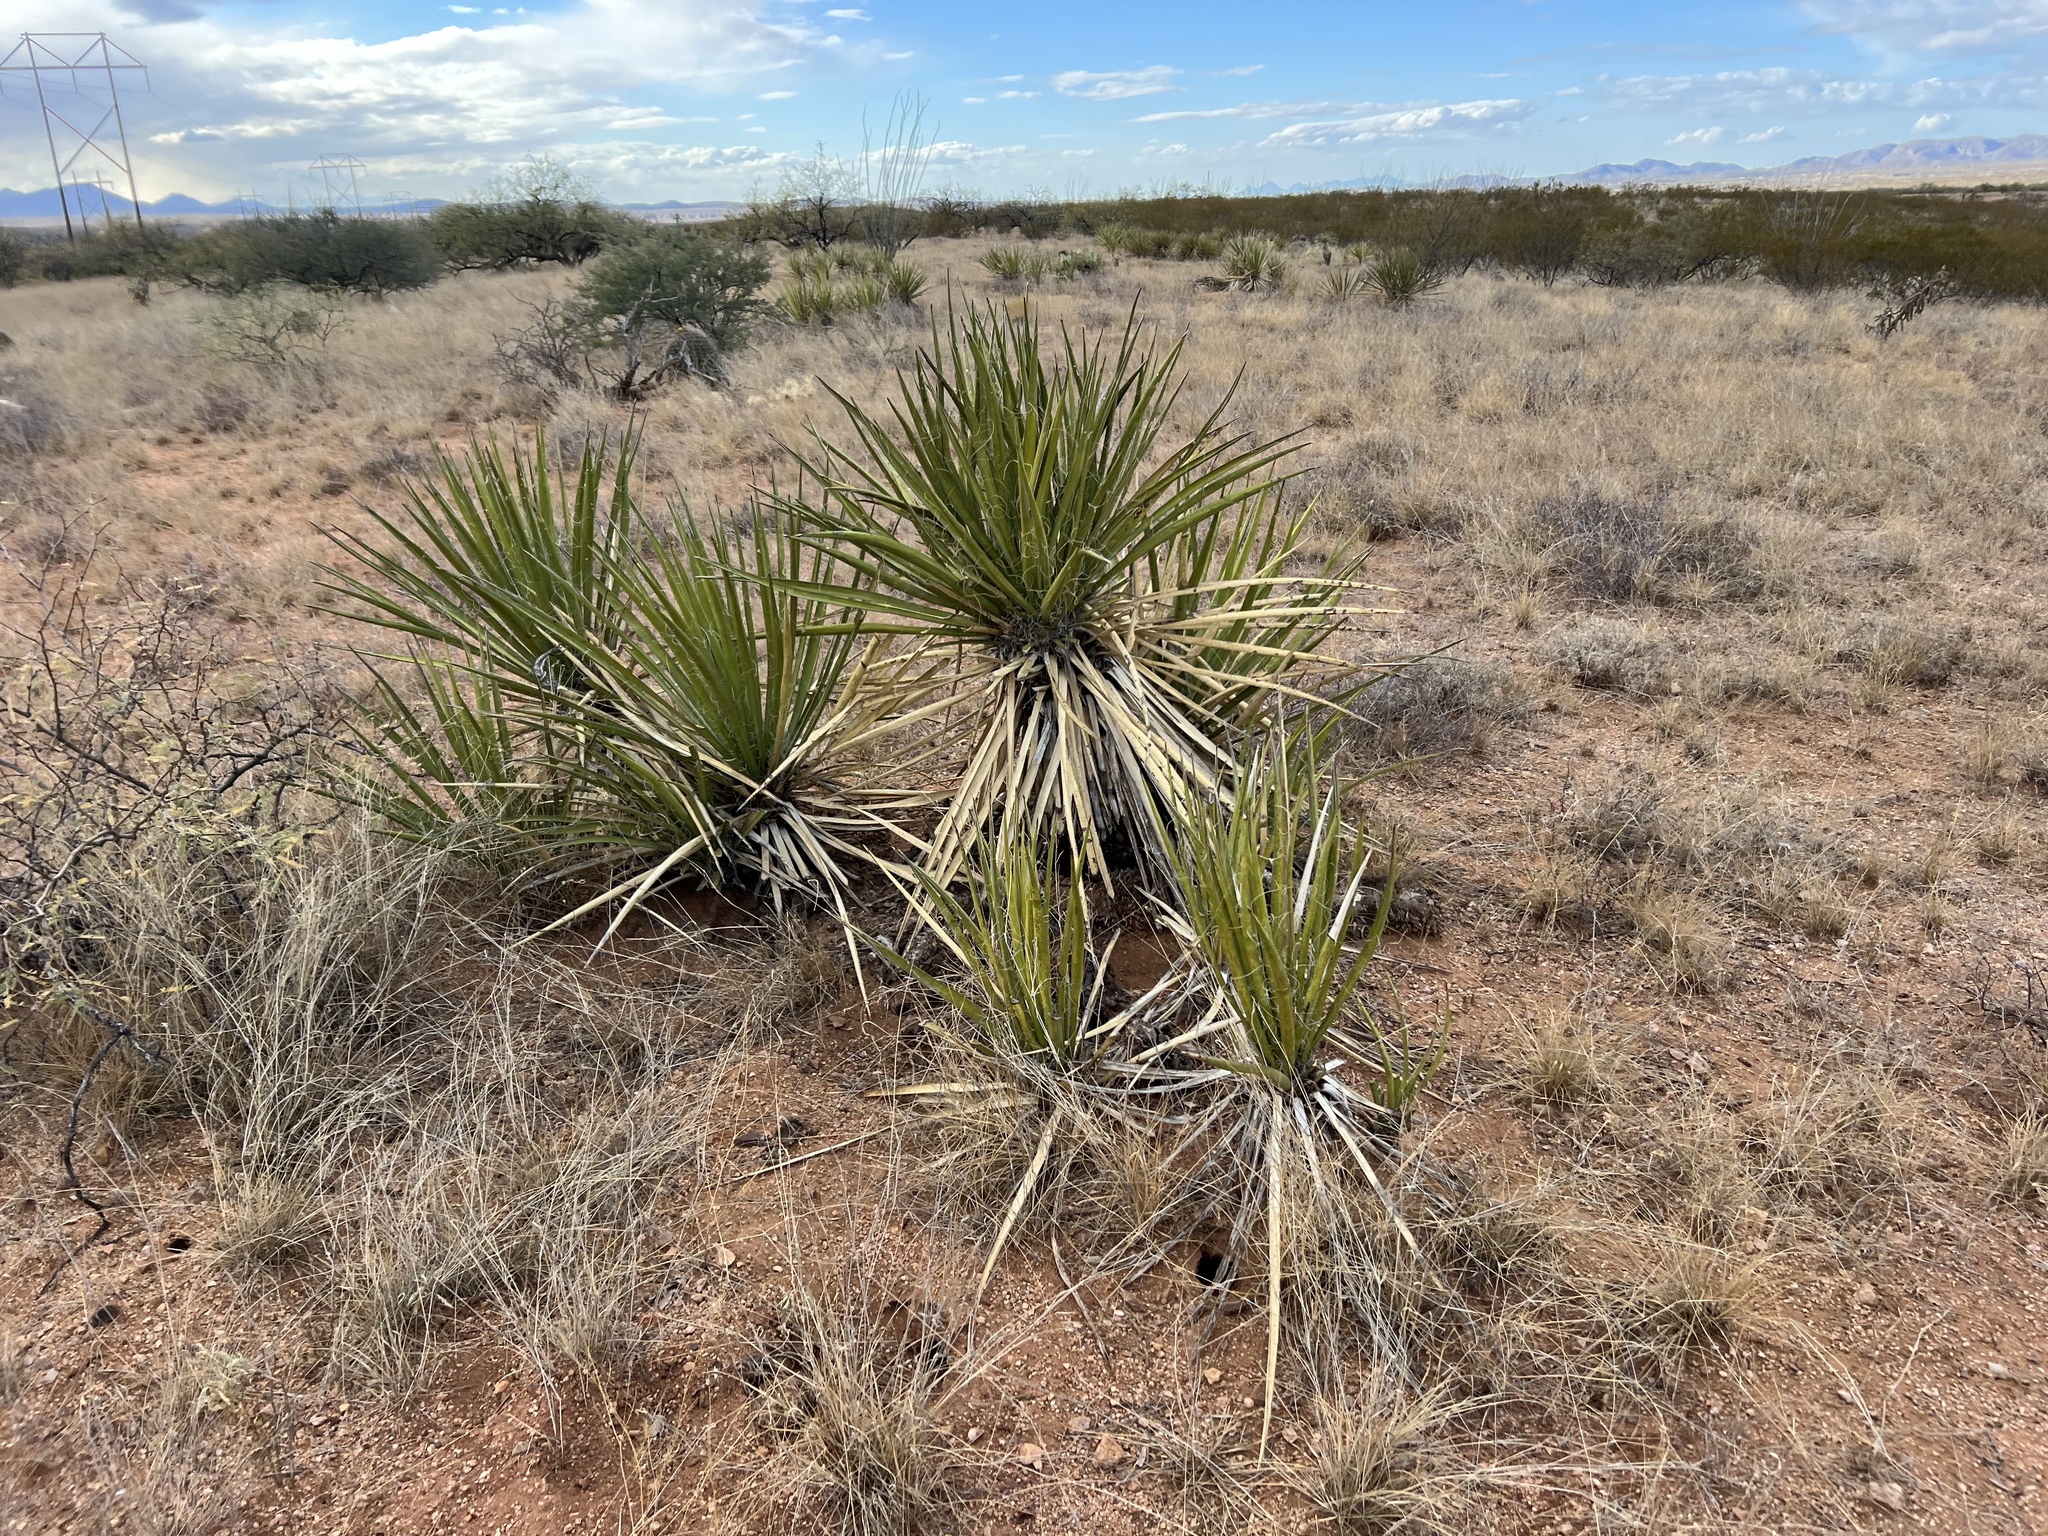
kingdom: Plantae
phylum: Tracheophyta
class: Liliopsida
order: Asparagales
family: Asparagaceae
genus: Yucca
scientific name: Yucca baccata
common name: Banana yucca
